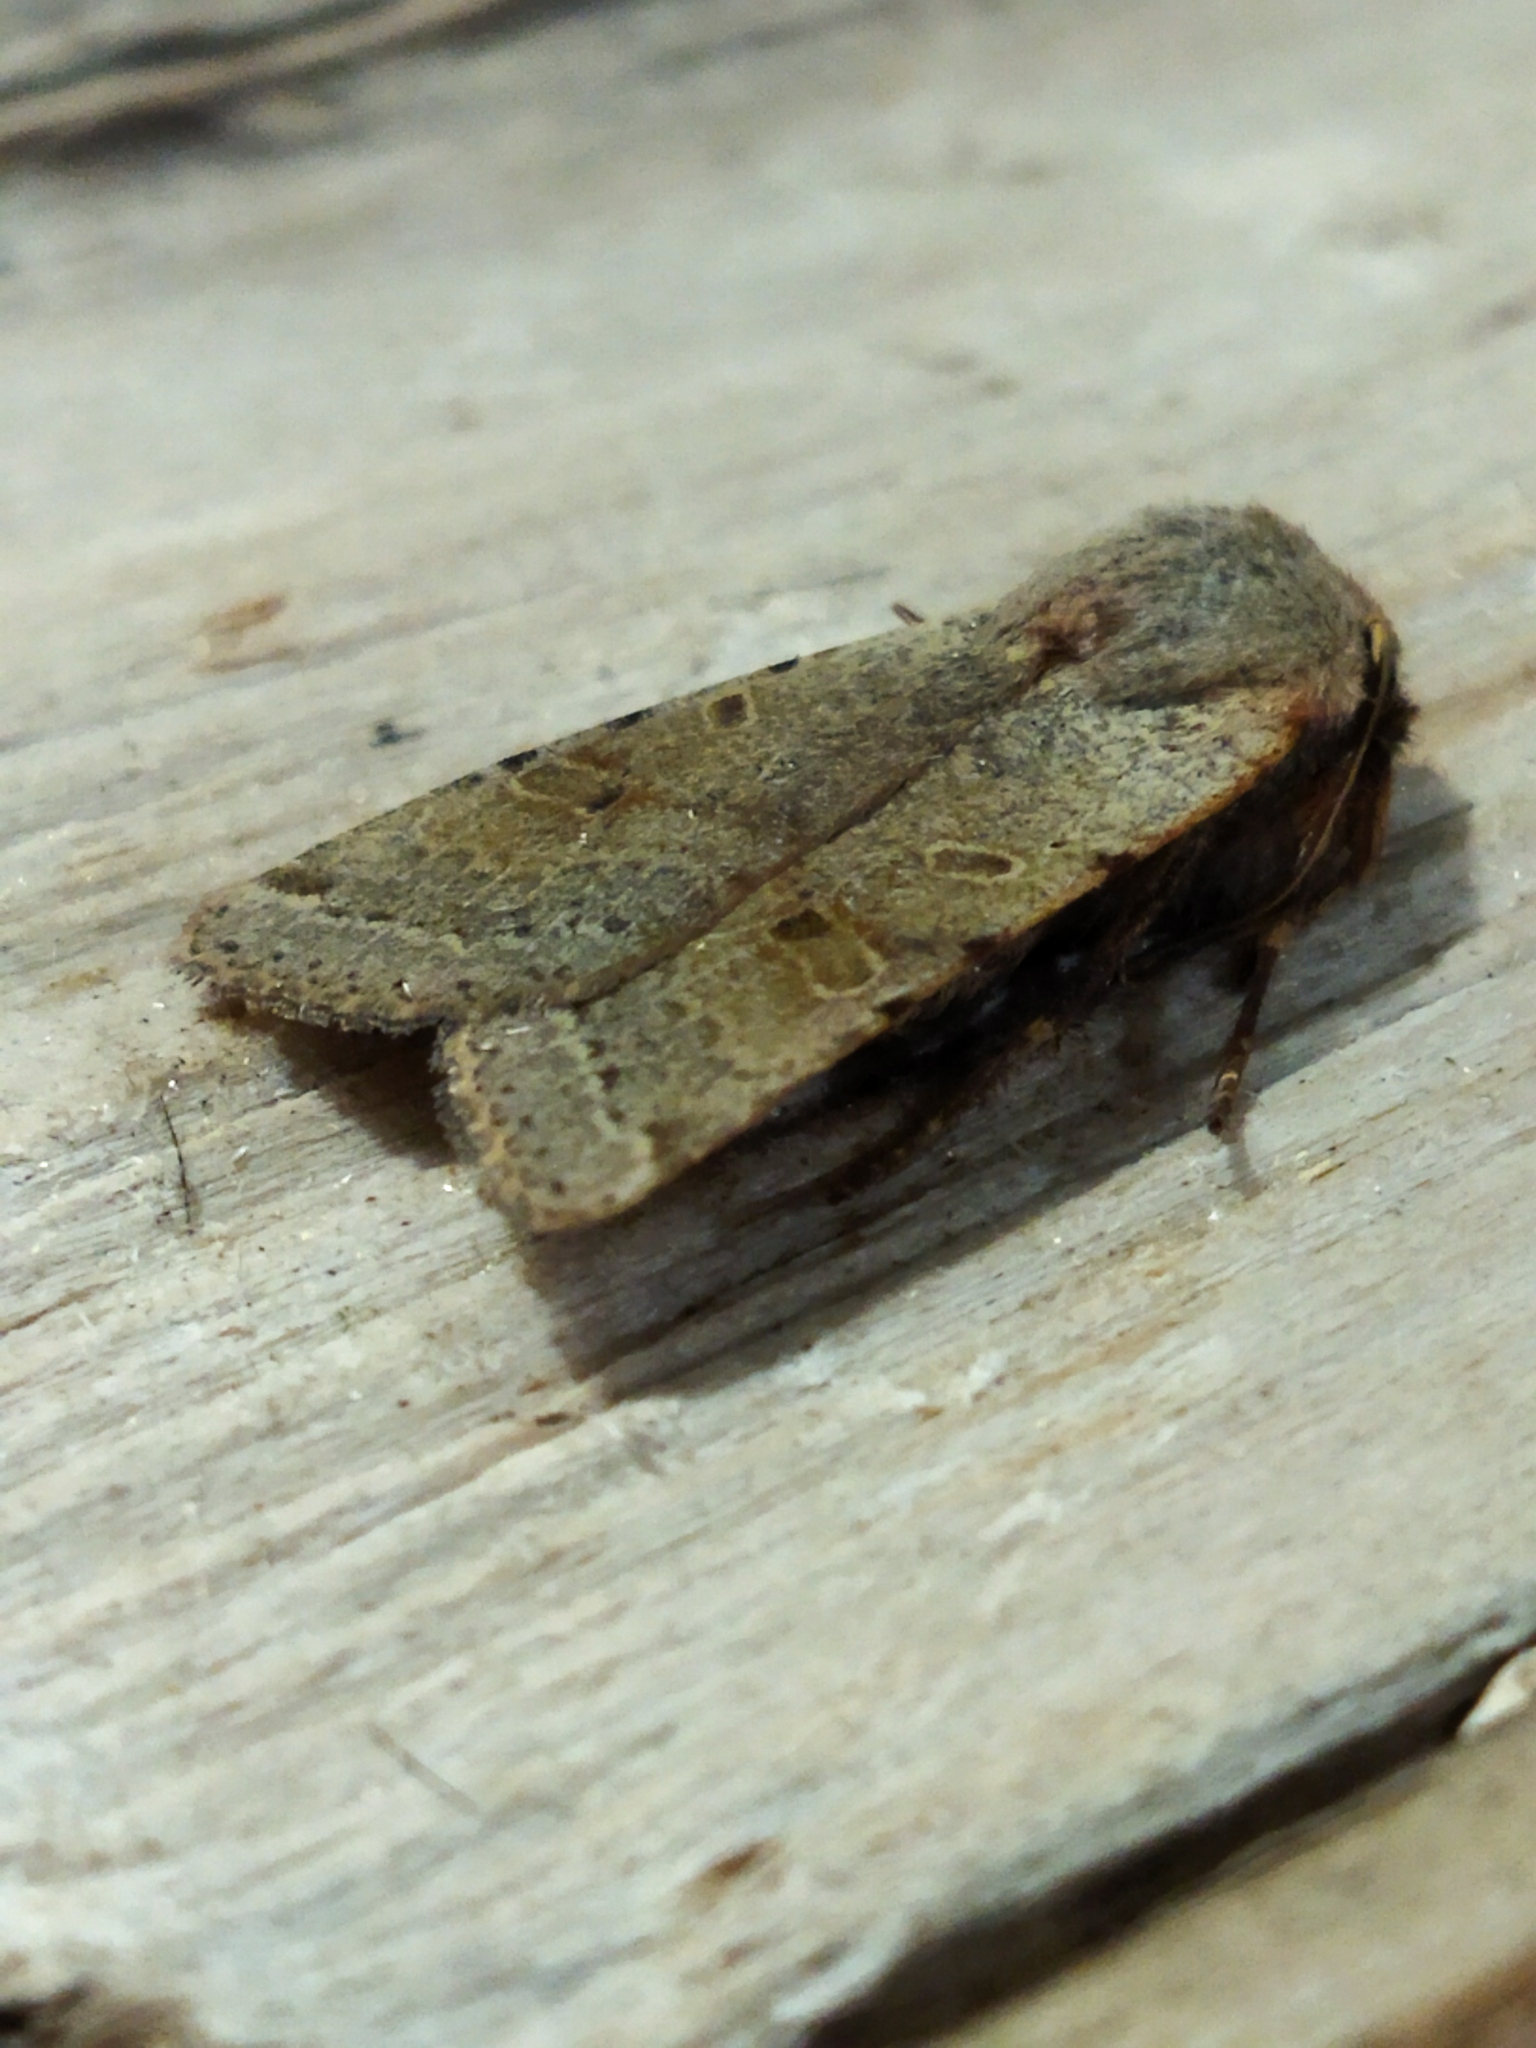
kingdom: Animalia
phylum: Arthropoda
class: Insecta
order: Lepidoptera
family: Noctuidae
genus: Agrochola
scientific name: Agrochola lychnidis
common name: Beaded chestnut
